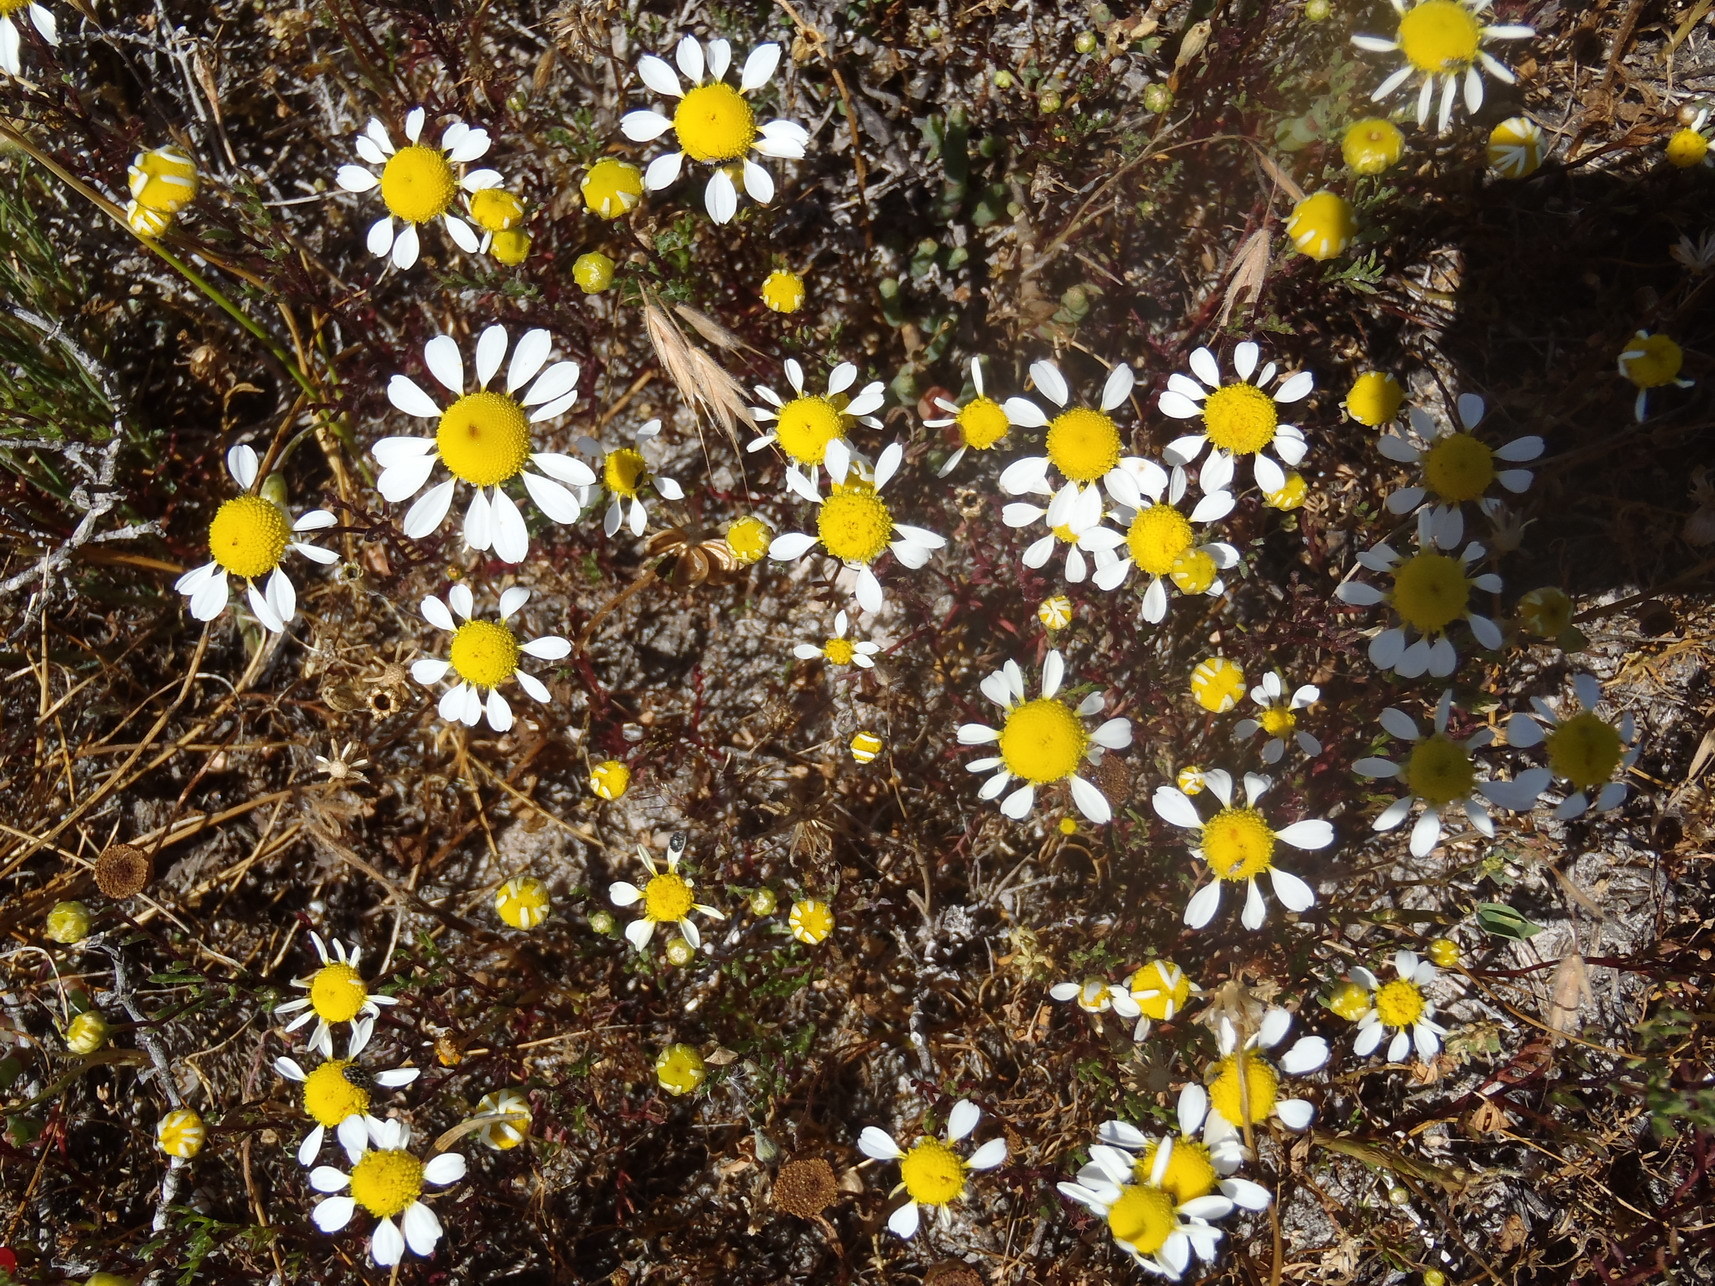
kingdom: Plantae
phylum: Tracheophyta
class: Magnoliopsida
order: Asterales
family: Asteraceae
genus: Oncosiphon
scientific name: Oncosiphon africanus
